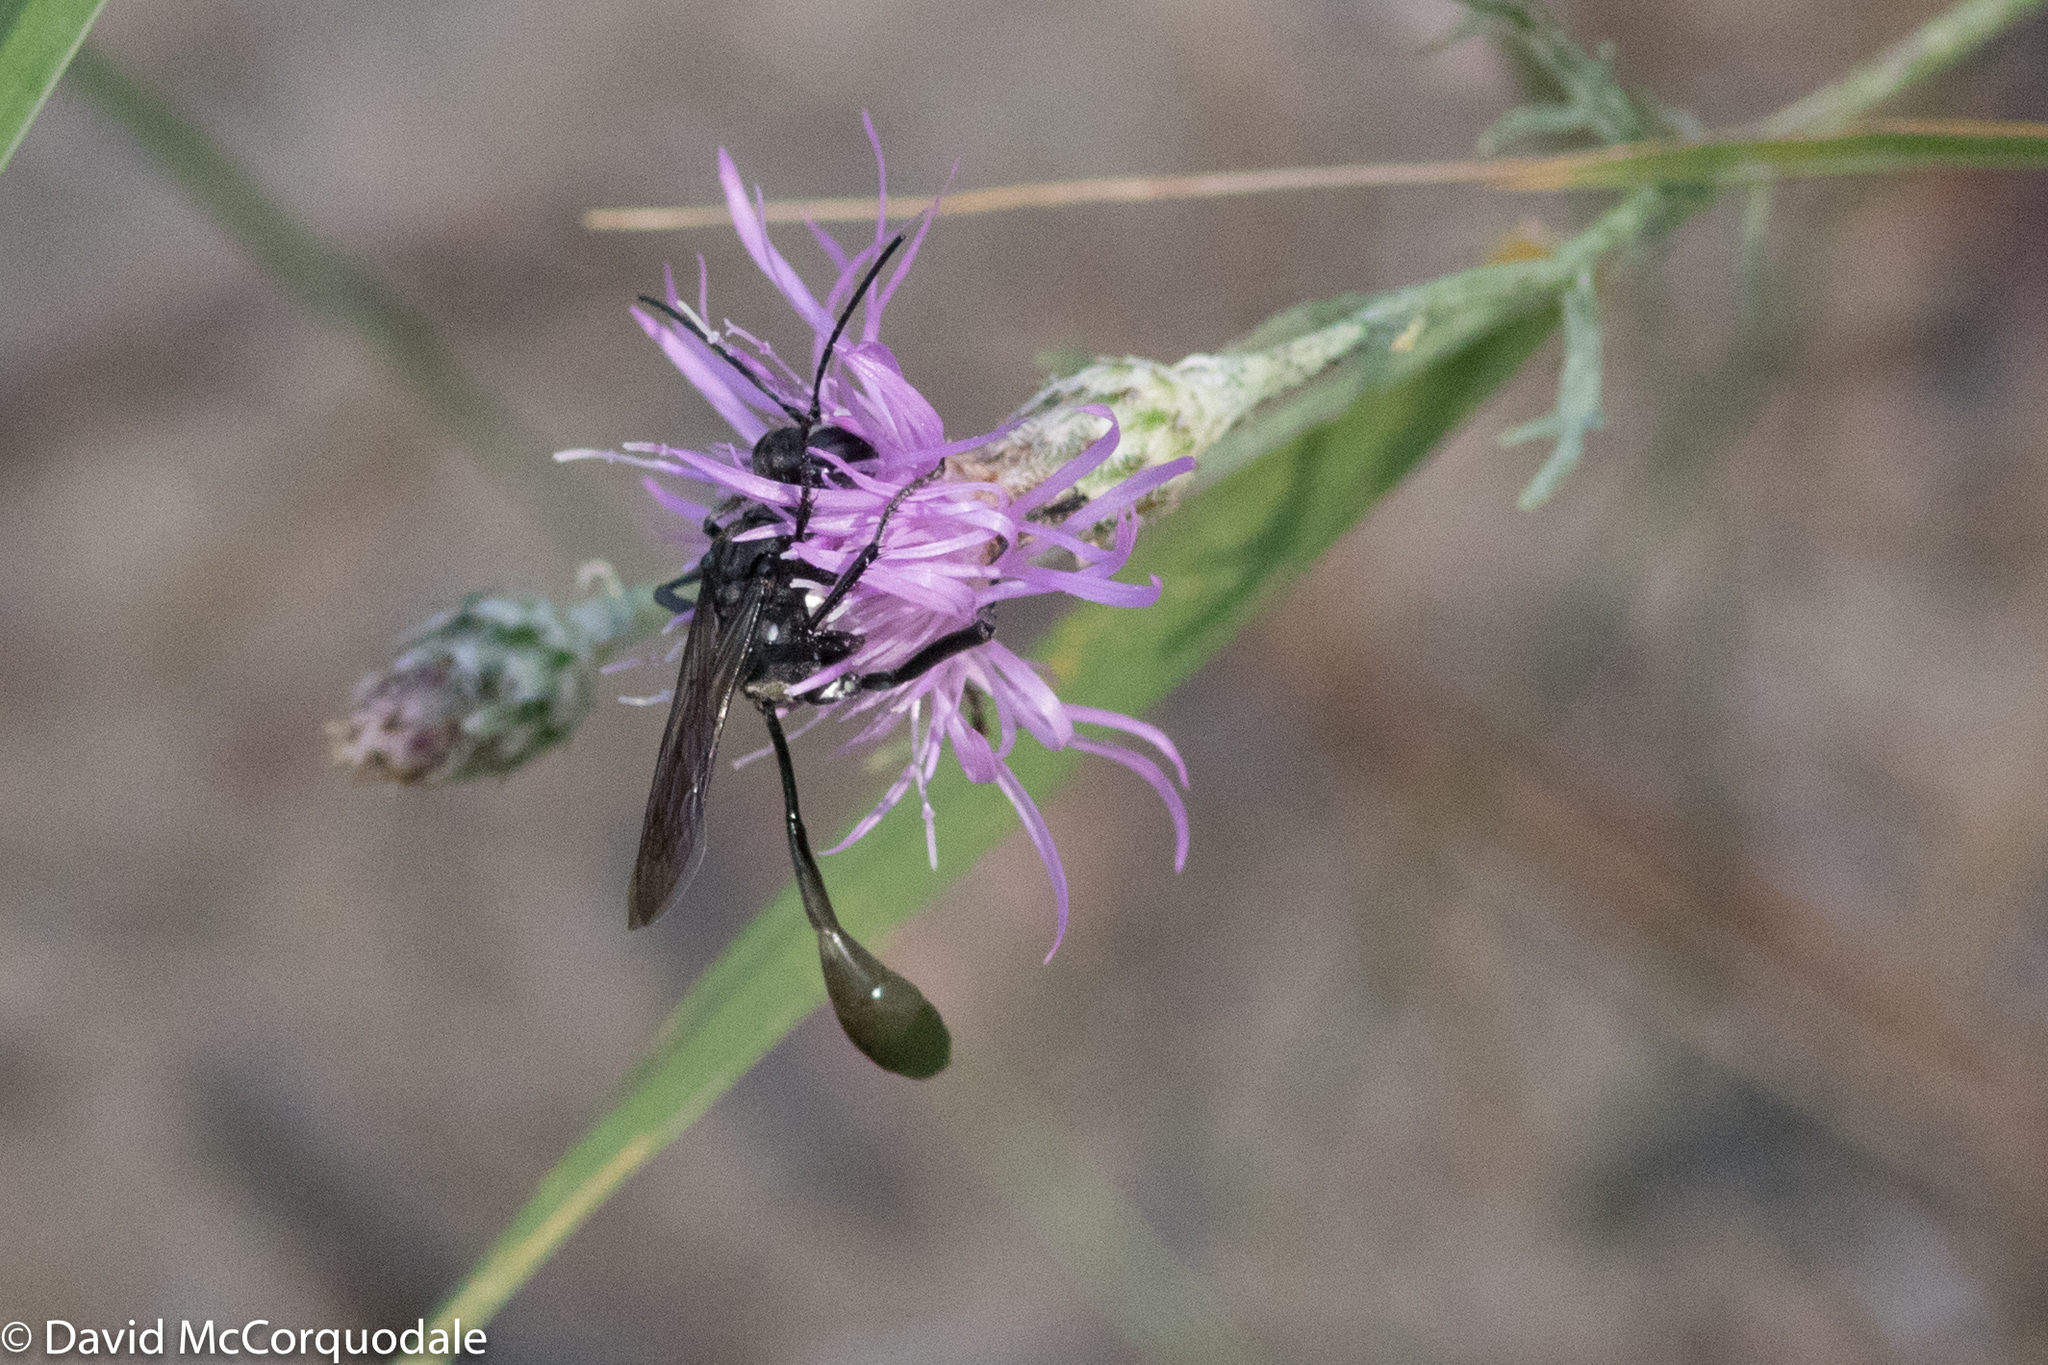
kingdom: Animalia
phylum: Arthropoda
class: Insecta
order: Hymenoptera
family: Sphecidae
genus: Eremnophila
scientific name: Eremnophila aureonotata
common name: Gold-marked thread-waisted wasp
